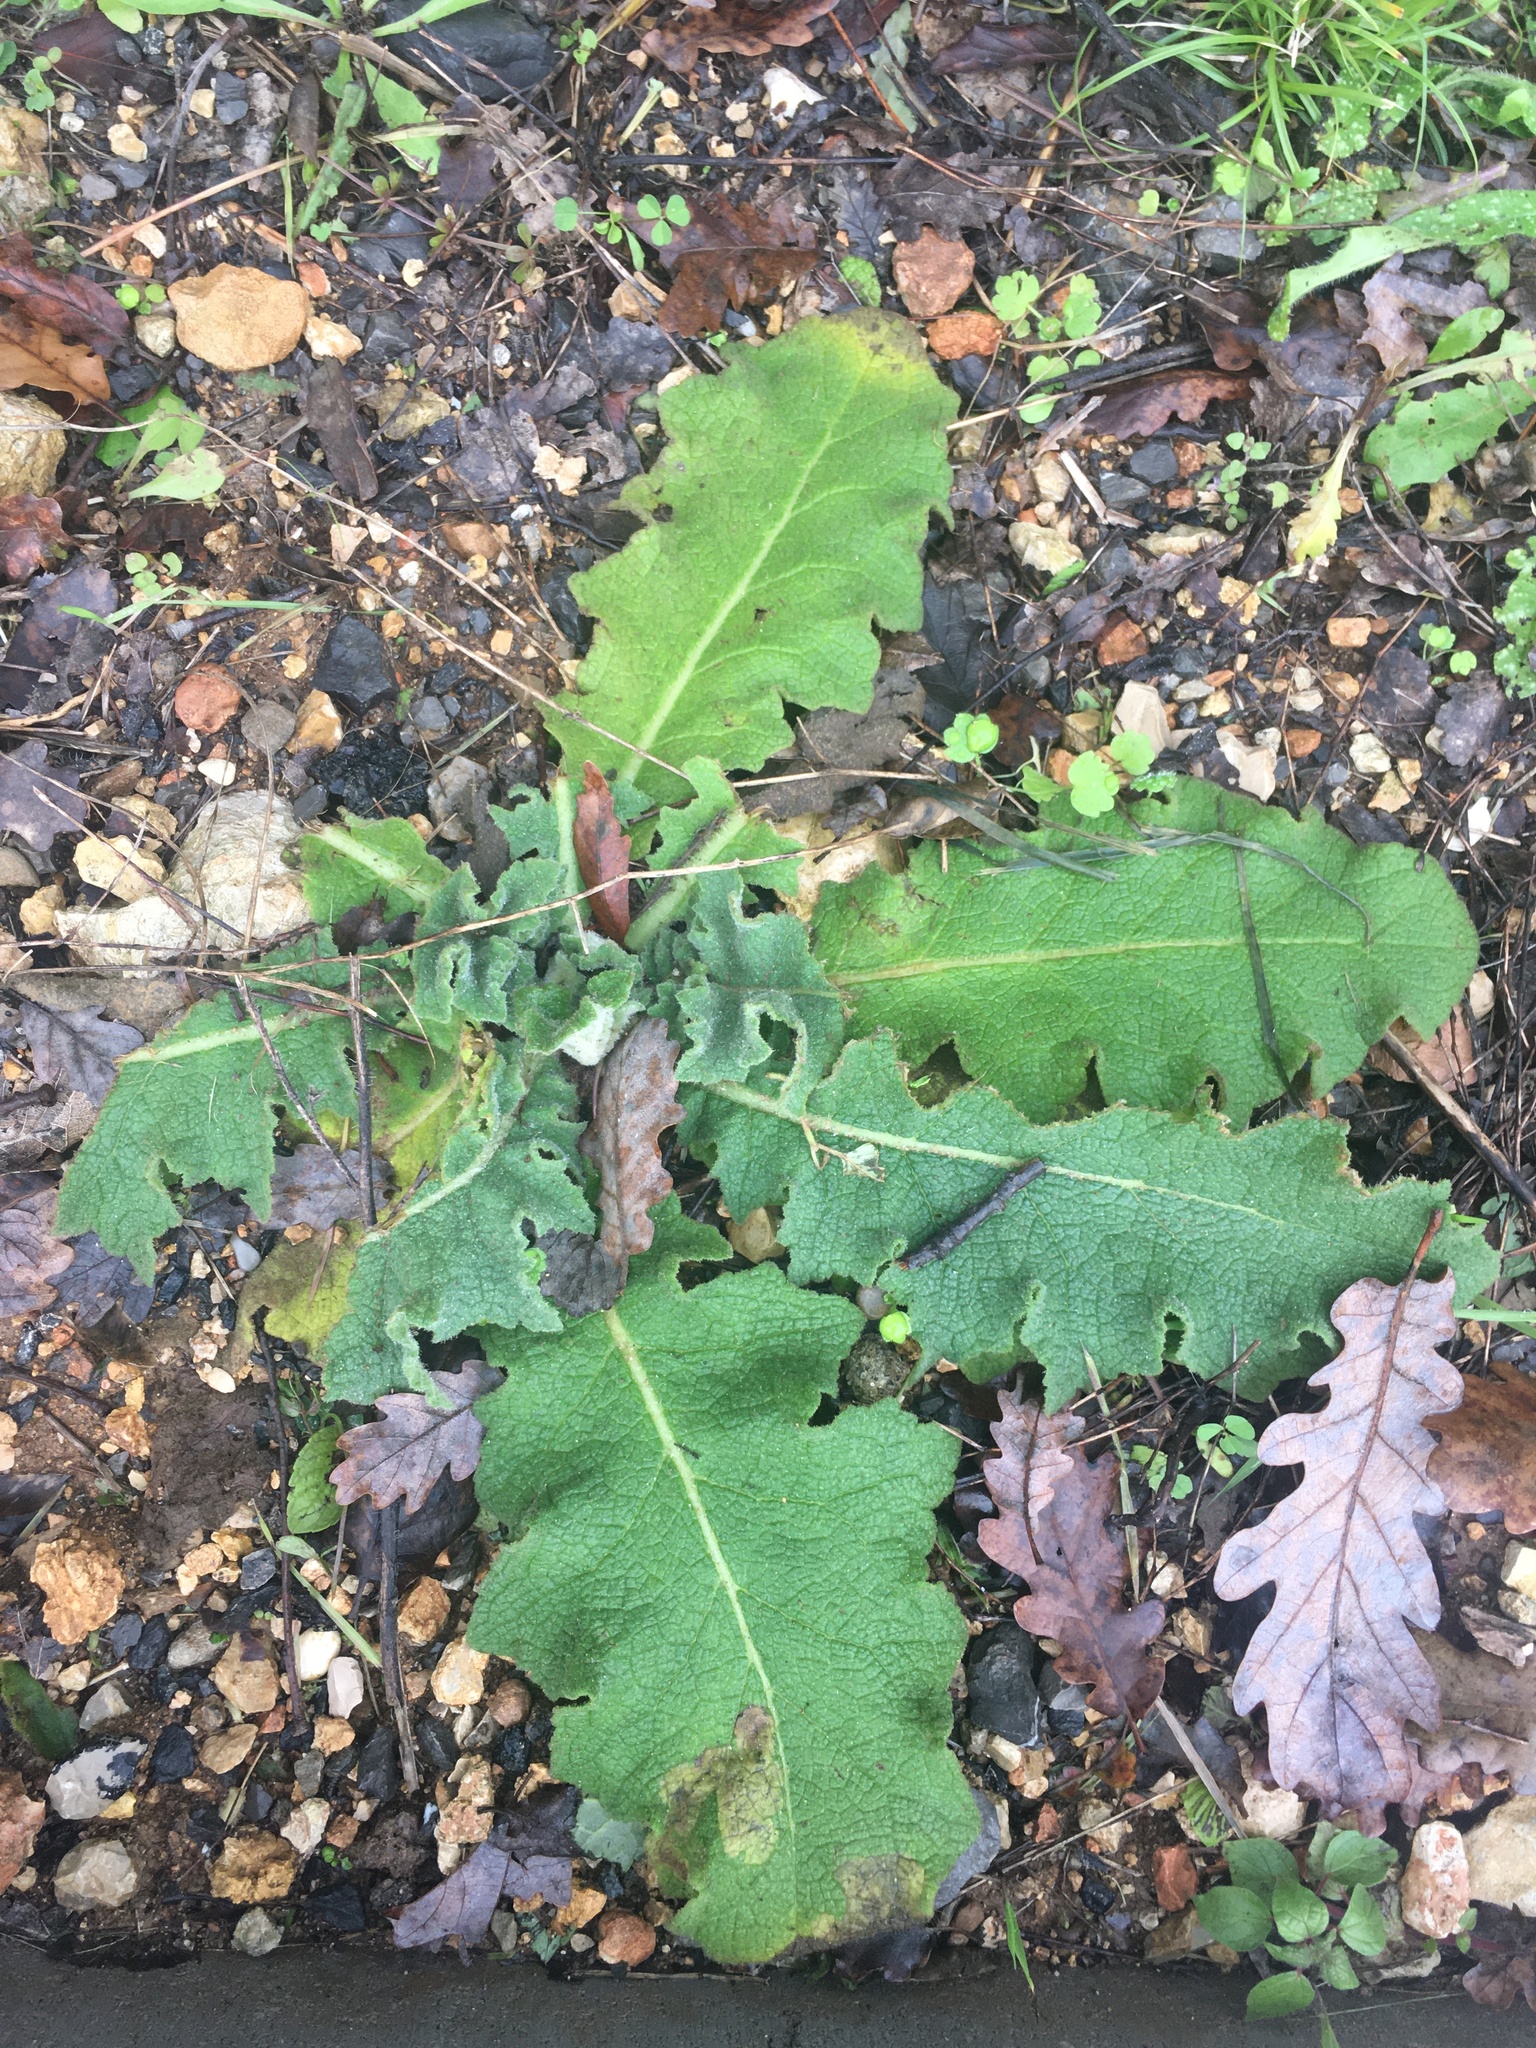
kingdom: Plantae
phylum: Tracheophyta
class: Magnoliopsida
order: Lamiales
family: Scrophulariaceae
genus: Verbascum
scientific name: Verbascum sinuatum
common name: Wavyleaf mullein
